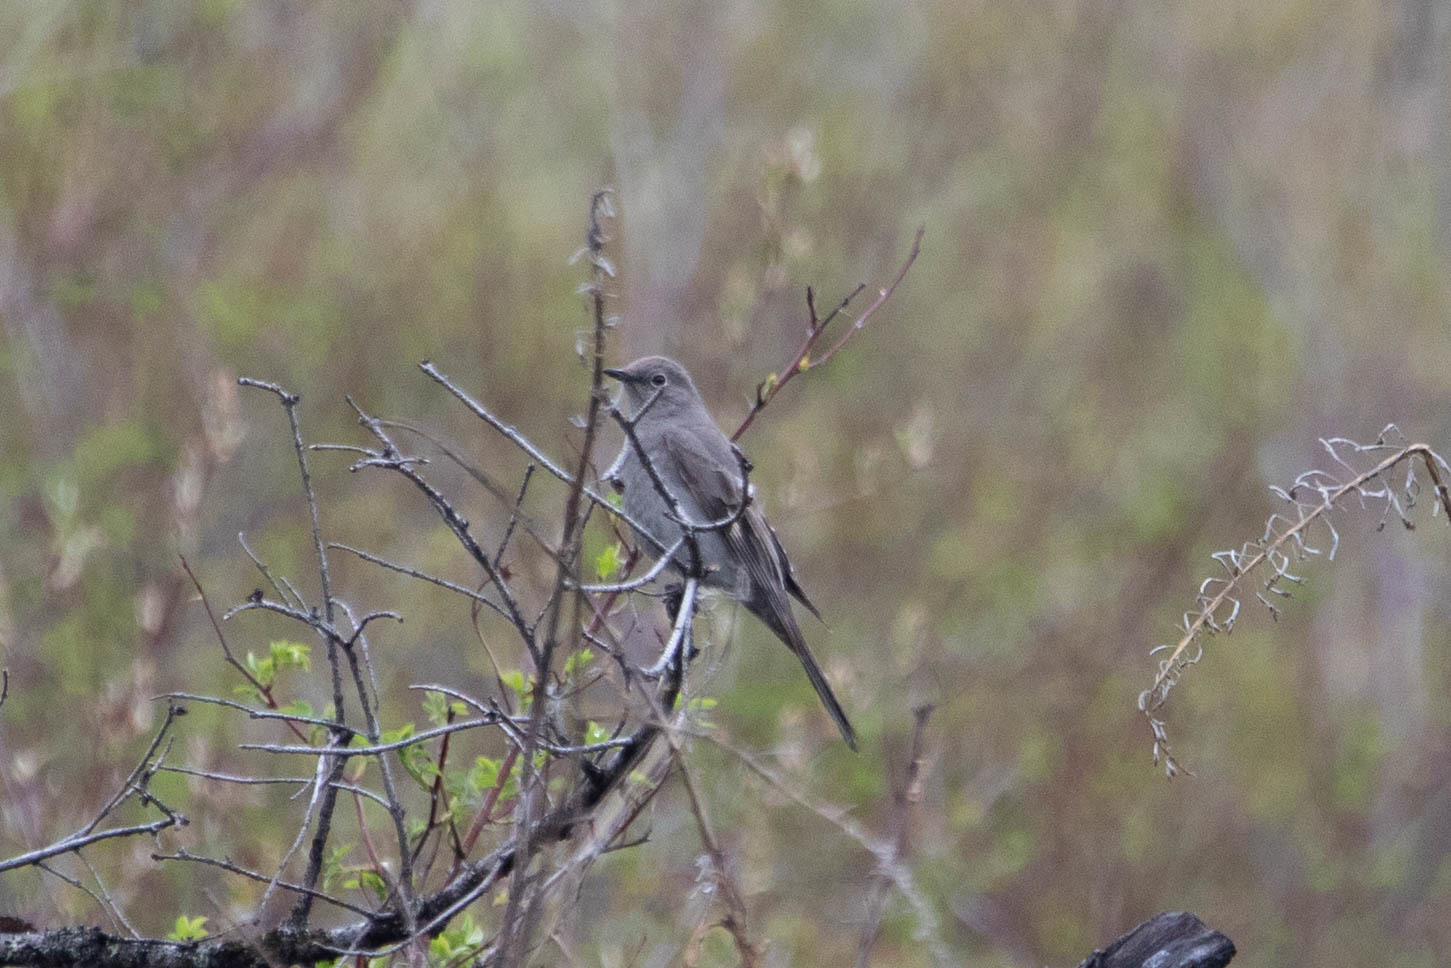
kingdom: Animalia
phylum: Chordata
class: Aves
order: Passeriformes
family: Turdidae
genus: Myadestes
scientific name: Myadestes townsendi
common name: Townsend's solitaire
